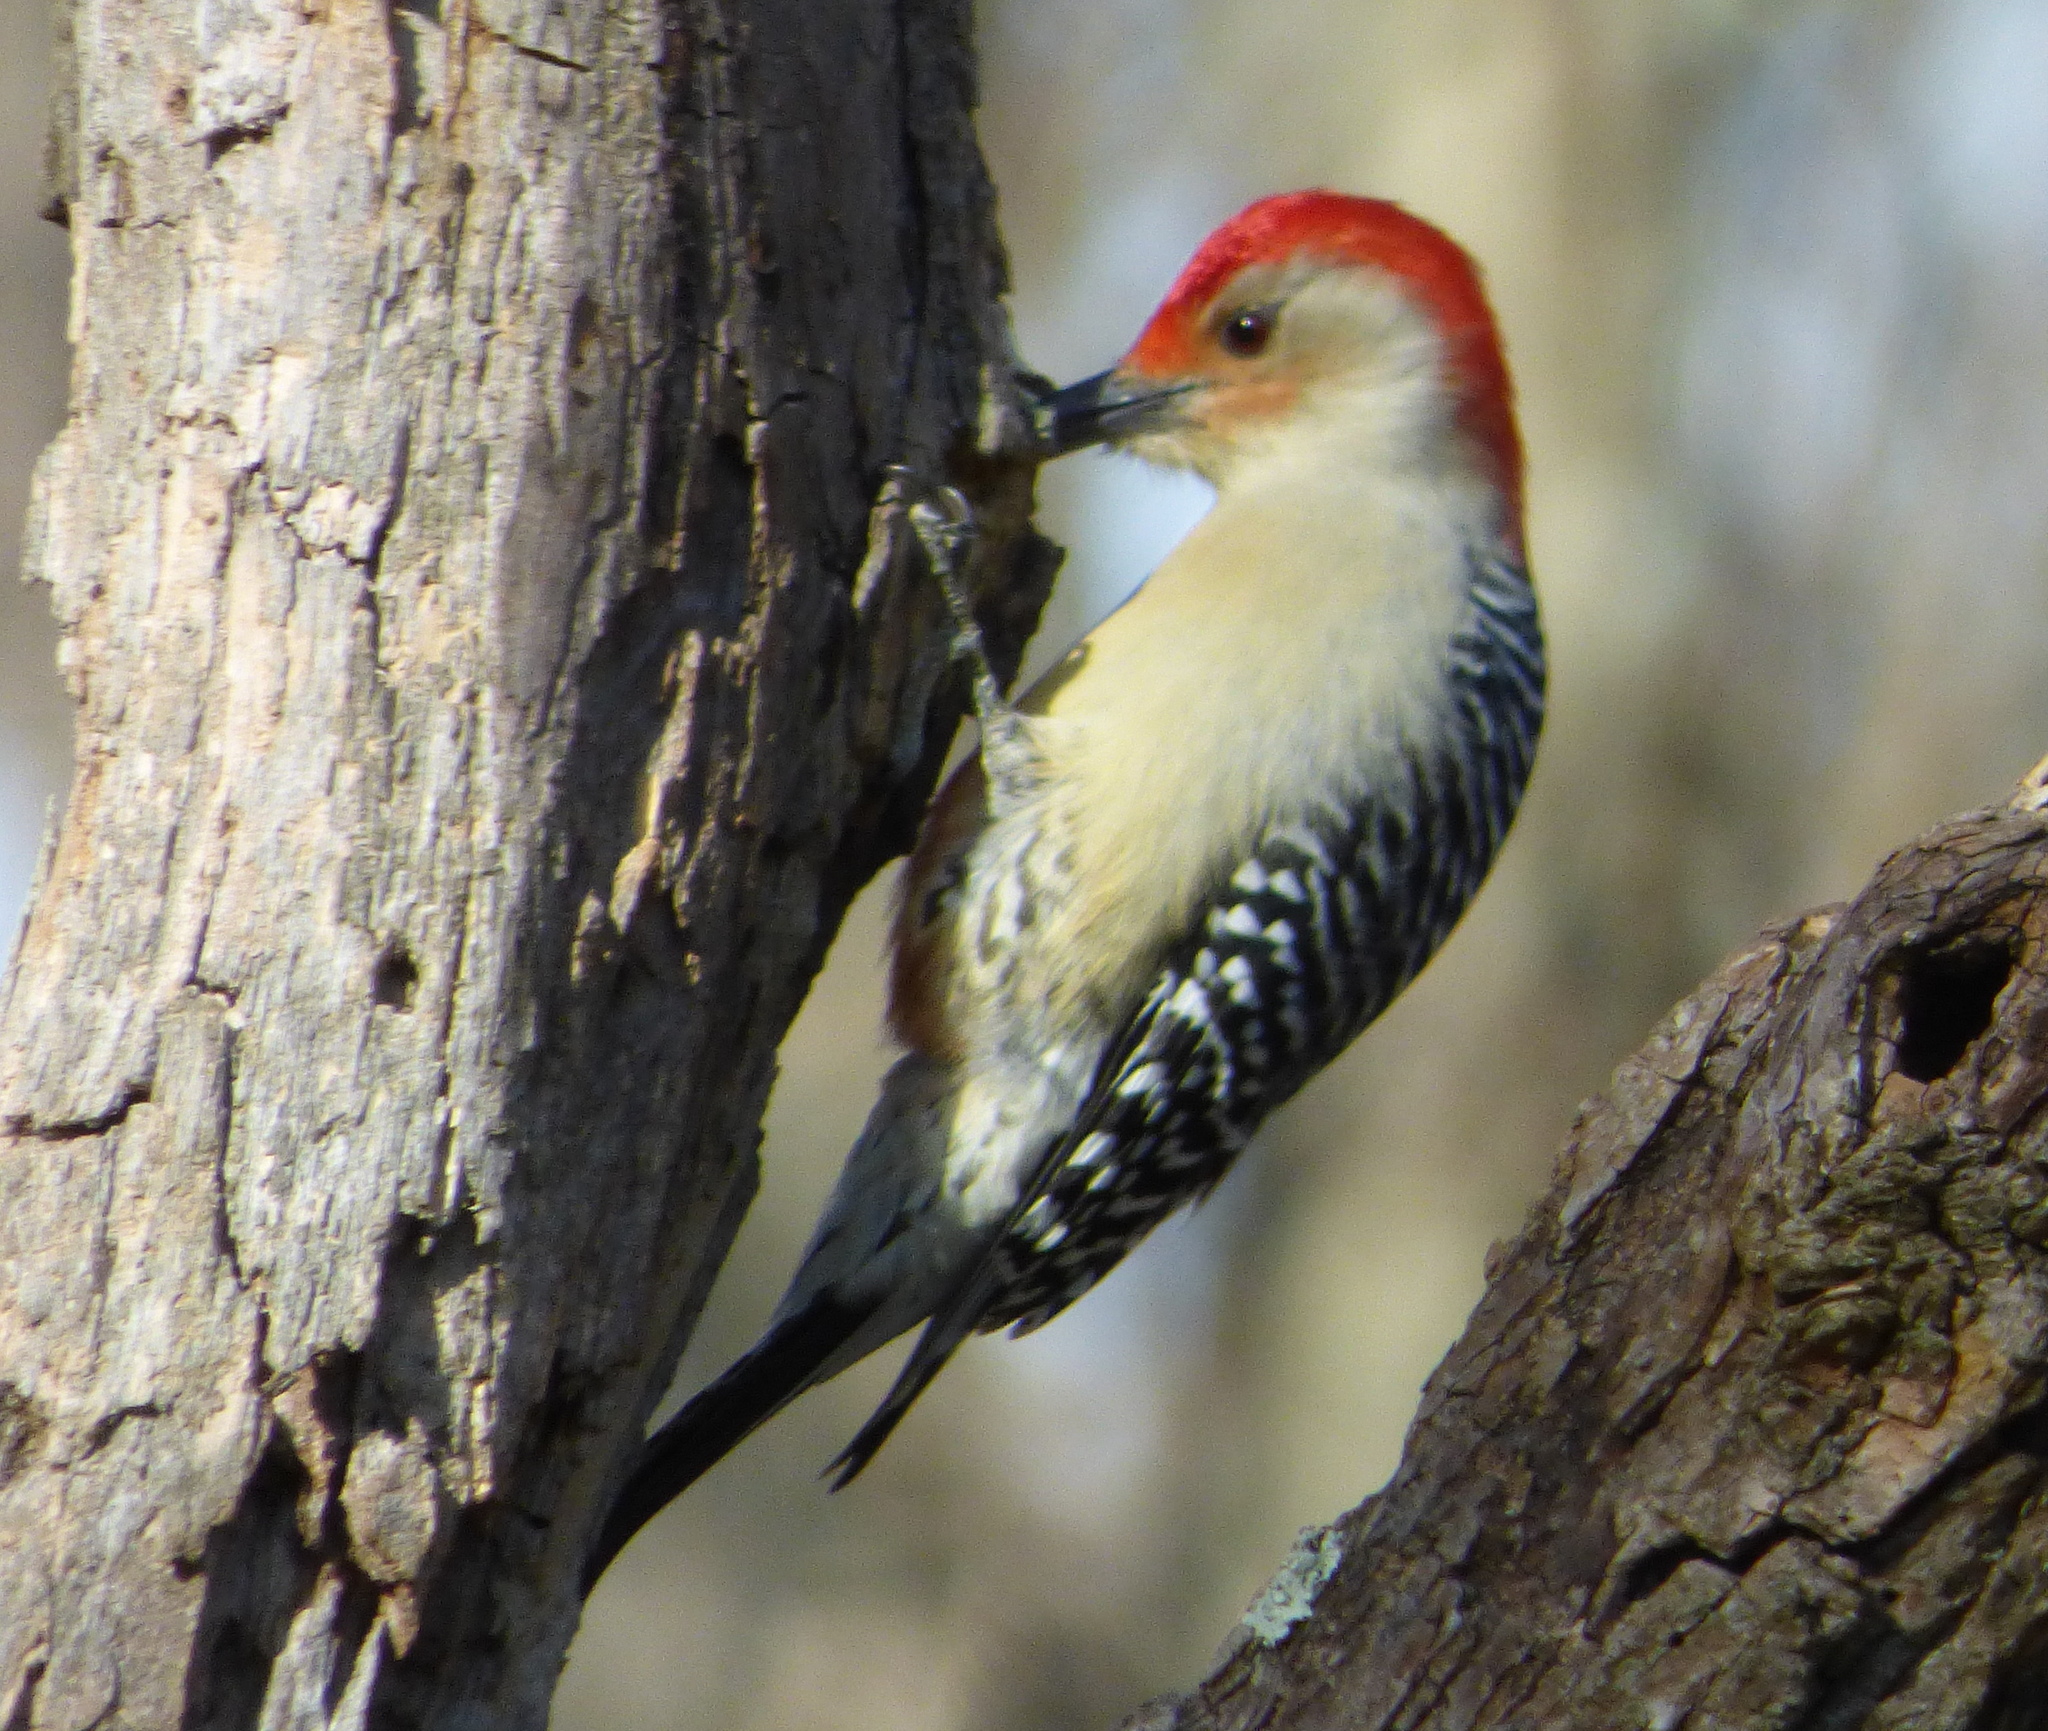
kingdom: Animalia
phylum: Chordata
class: Aves
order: Piciformes
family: Picidae
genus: Melanerpes
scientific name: Melanerpes carolinus
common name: Red-bellied woodpecker
